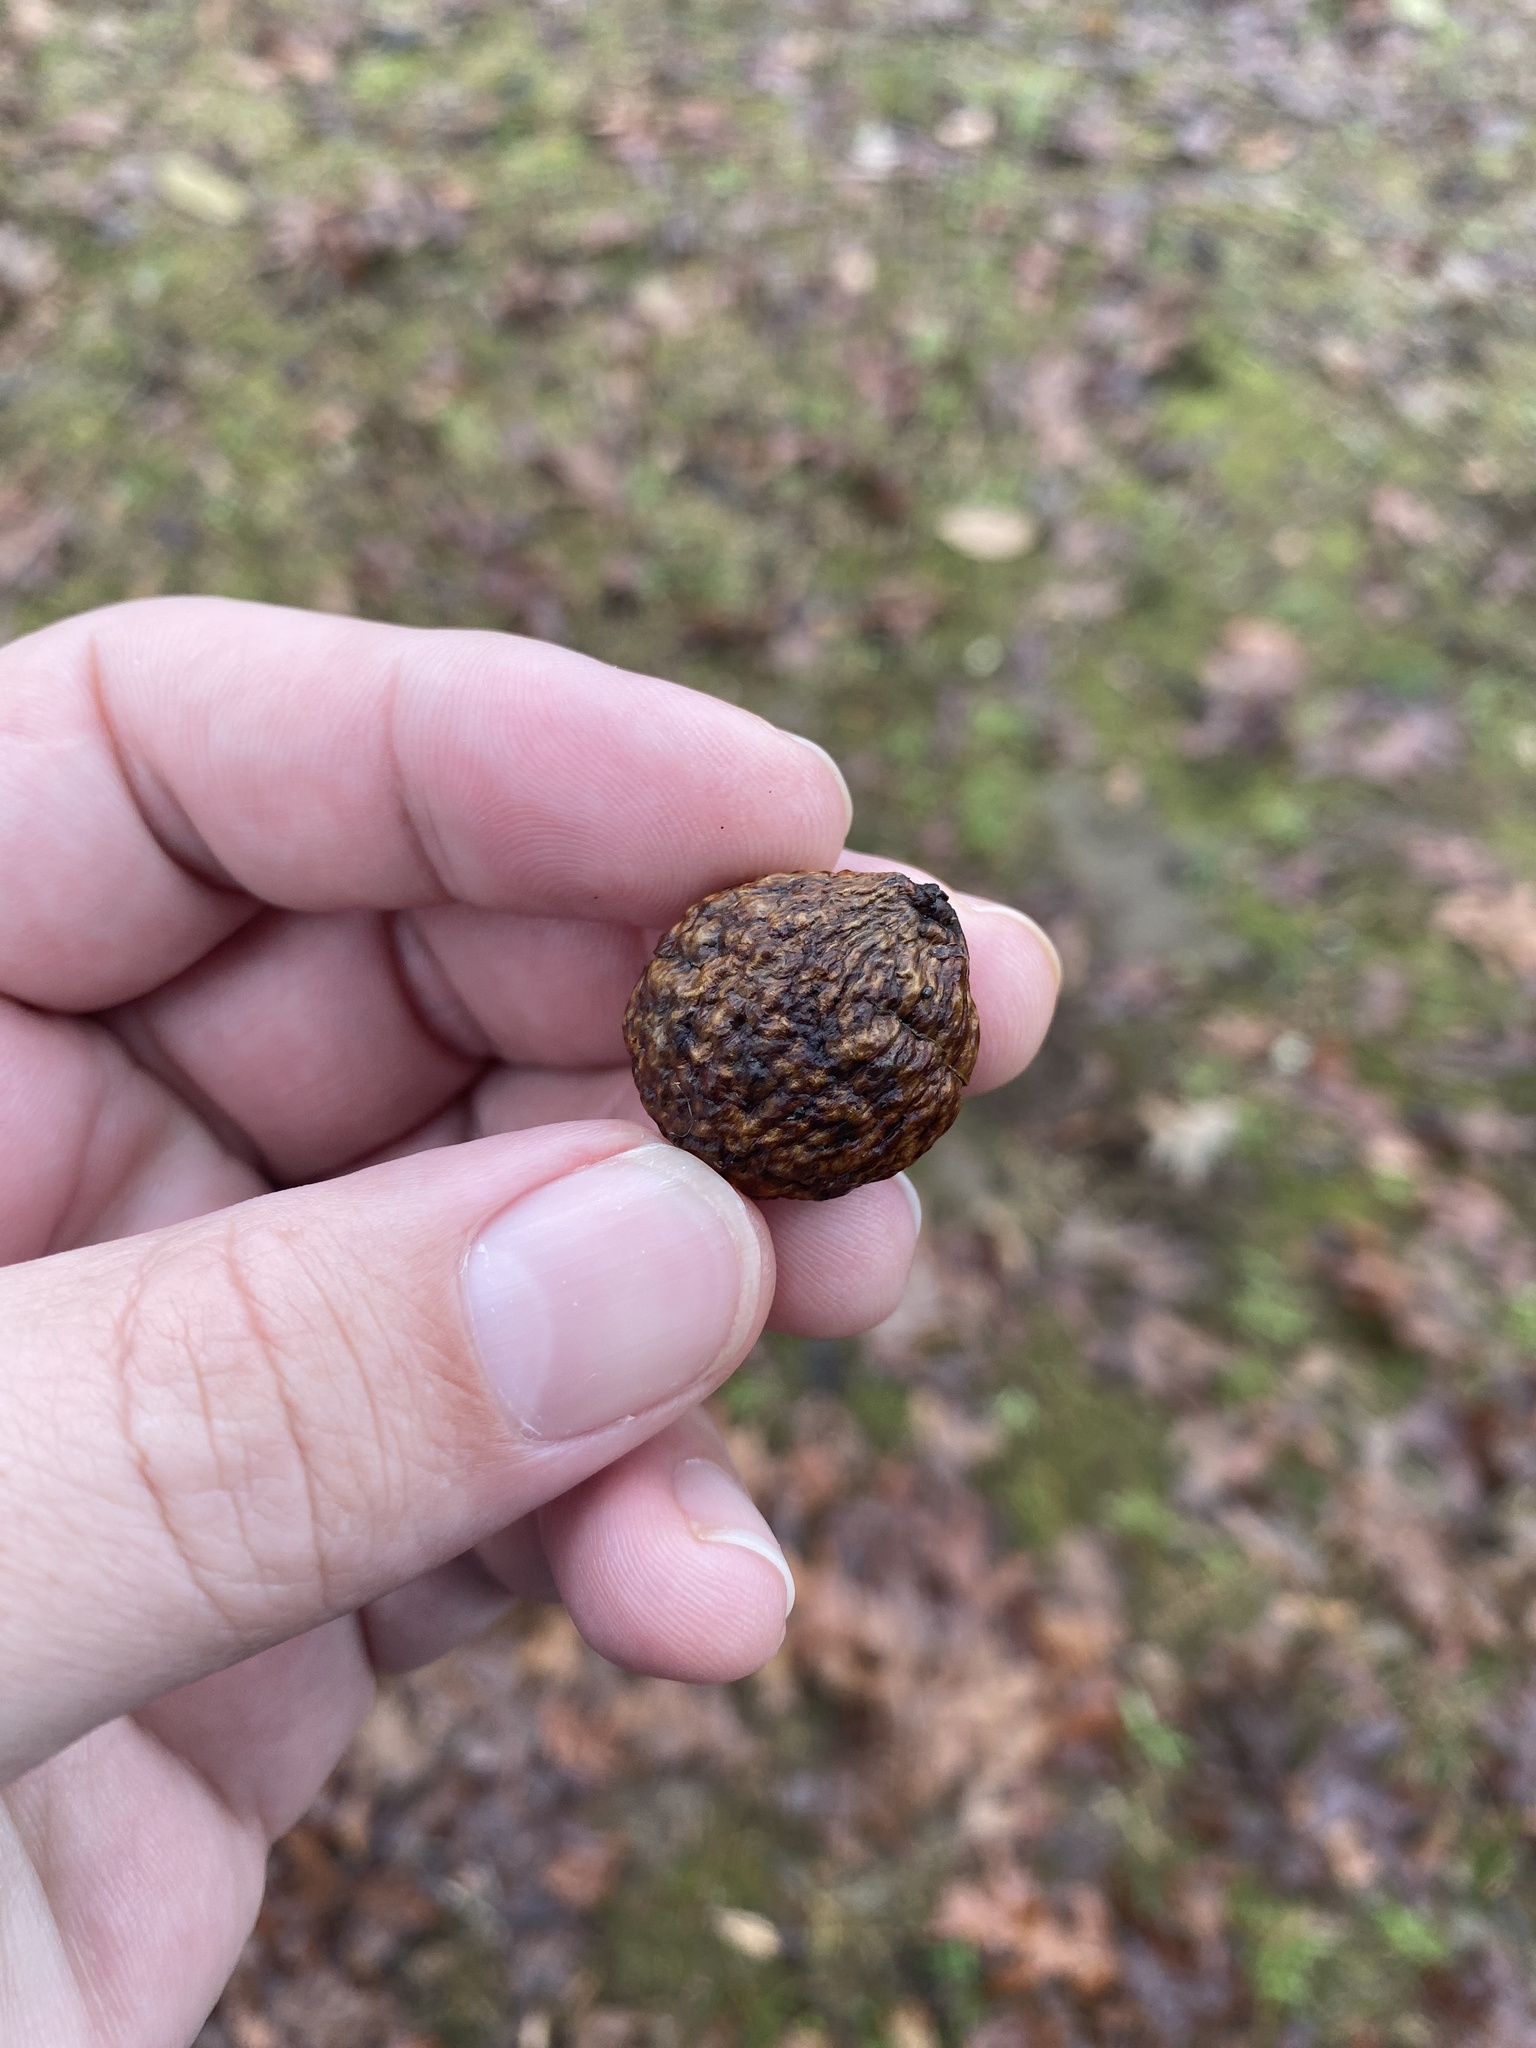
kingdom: Animalia
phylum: Arthropoda
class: Insecta
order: Hymenoptera
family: Cynipidae
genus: Amphibolips
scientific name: Amphibolips
